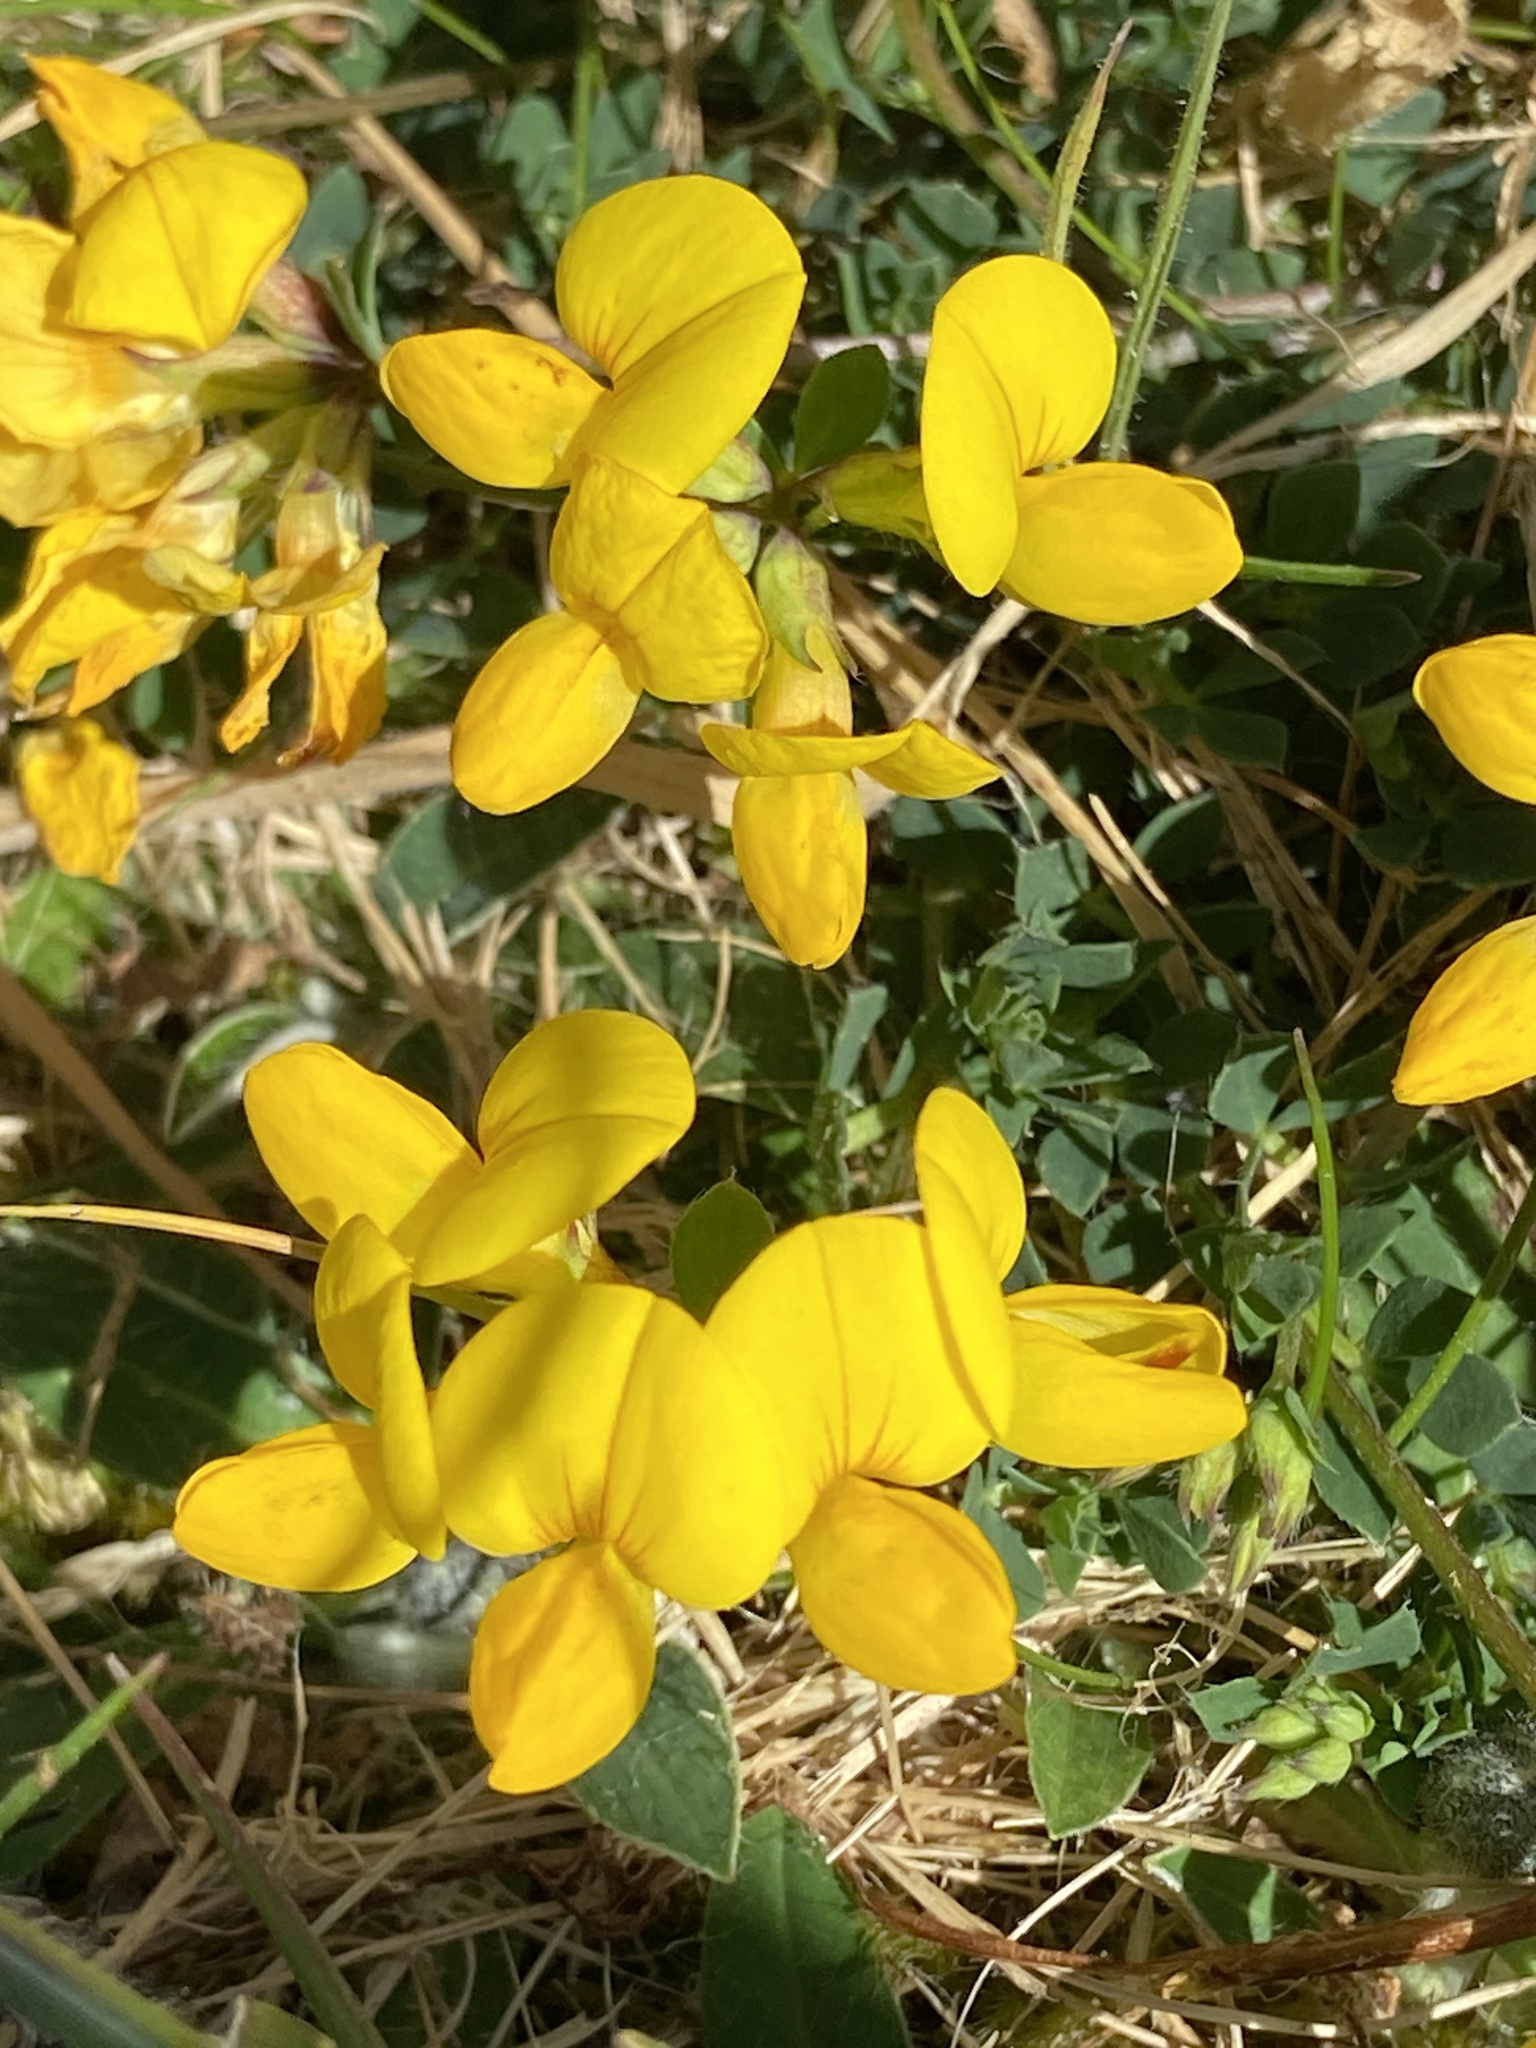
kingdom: Plantae
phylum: Tracheophyta
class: Magnoliopsida
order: Fabales
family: Fabaceae
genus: Lotus
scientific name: Lotus corniculatus
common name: Common bird's-foot-trefoil
